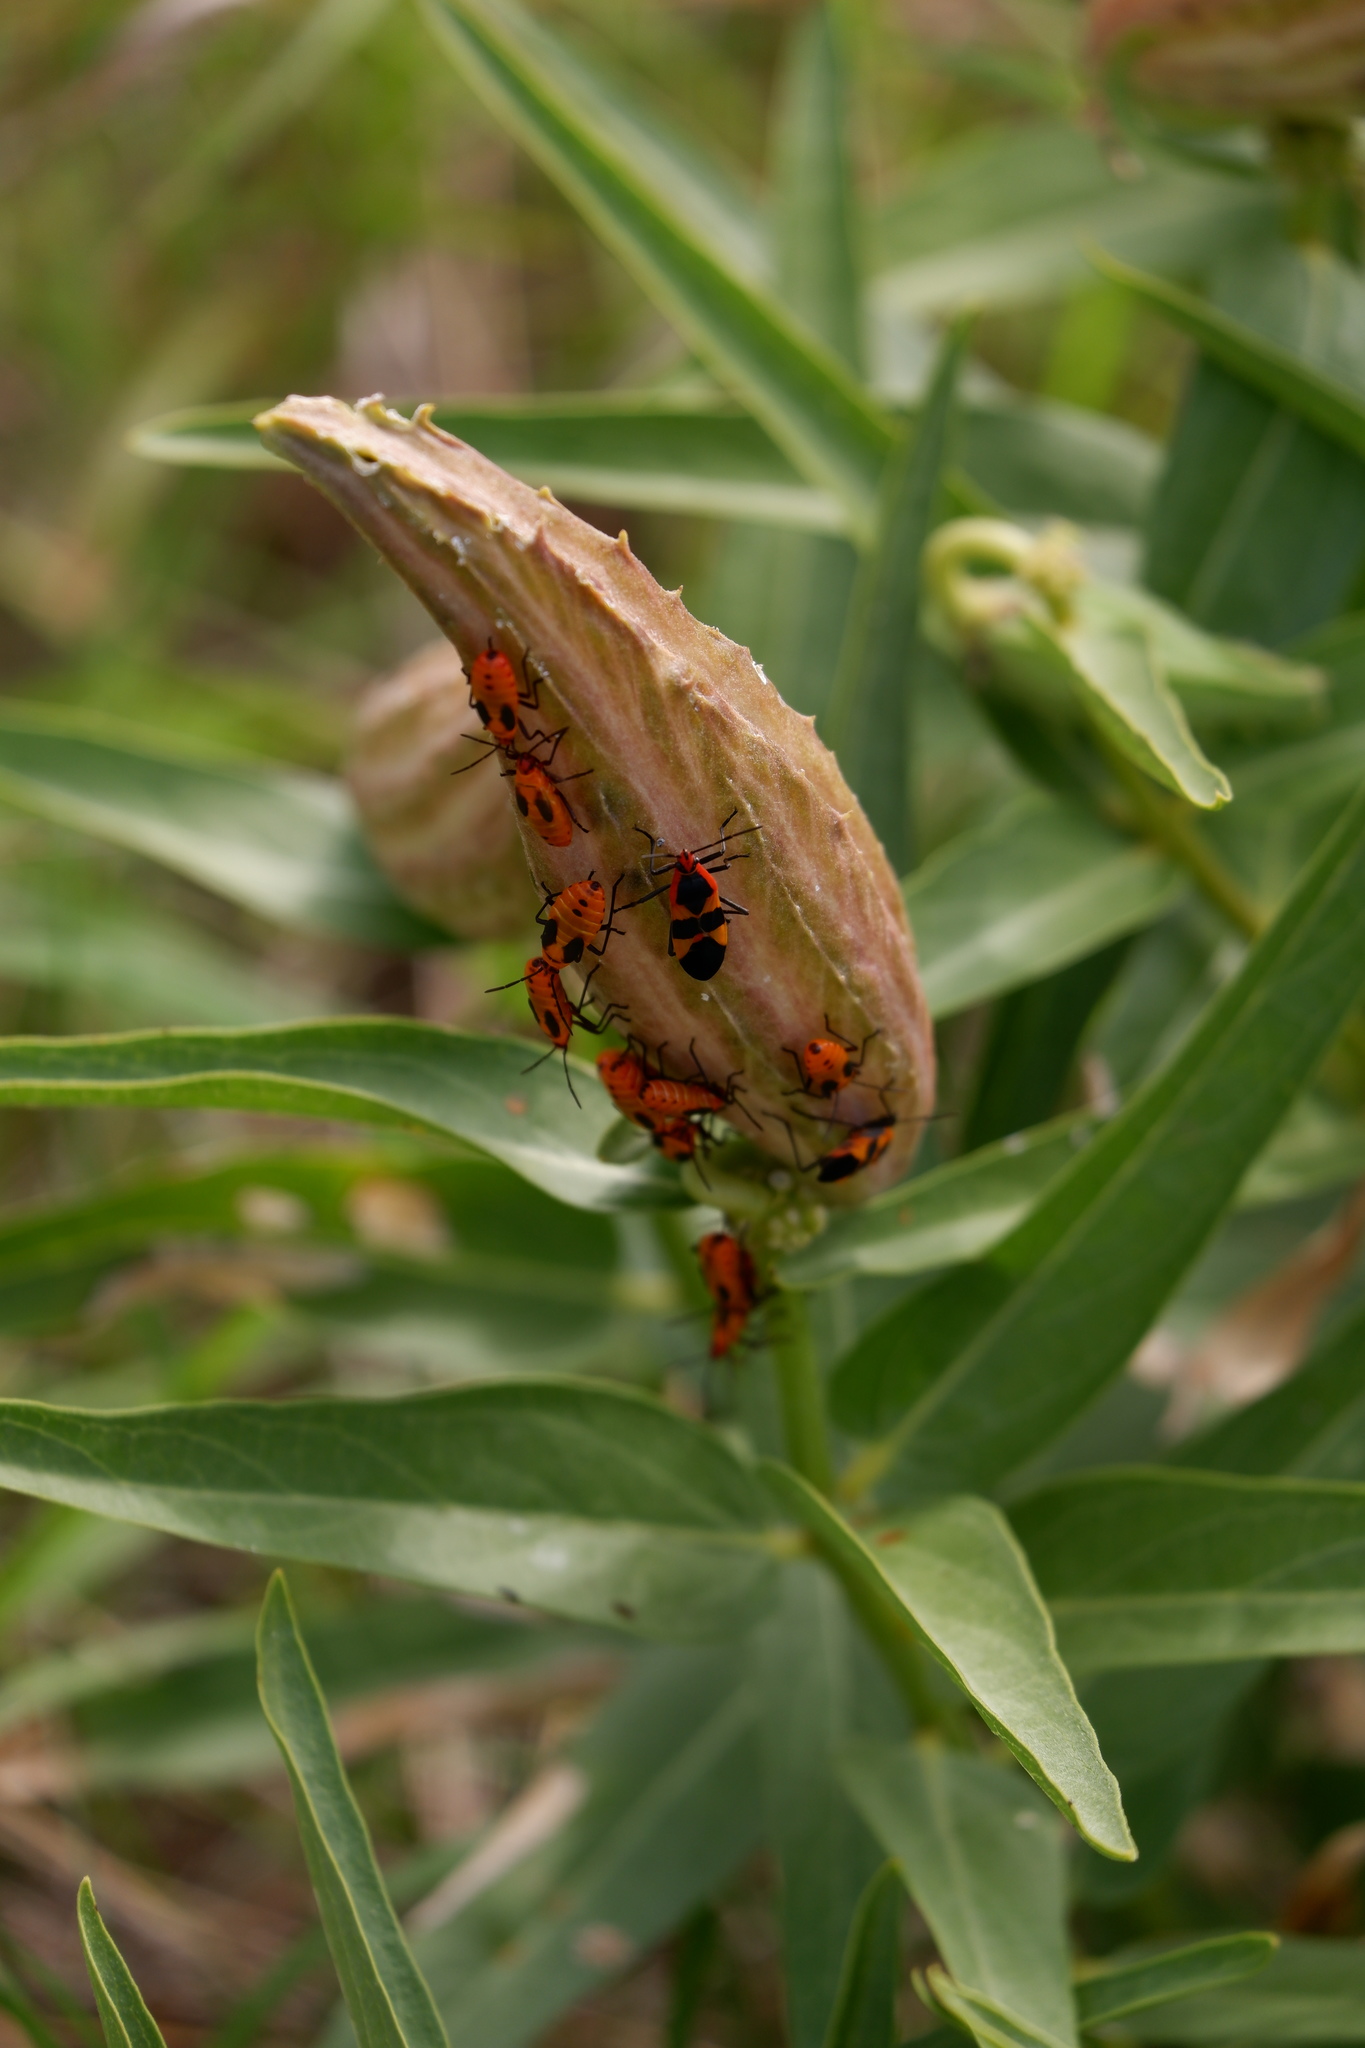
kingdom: Animalia
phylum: Arthropoda
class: Insecta
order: Hemiptera
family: Lygaeidae
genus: Oncopeltus
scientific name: Oncopeltus fasciatus
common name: Large milkweed bug
